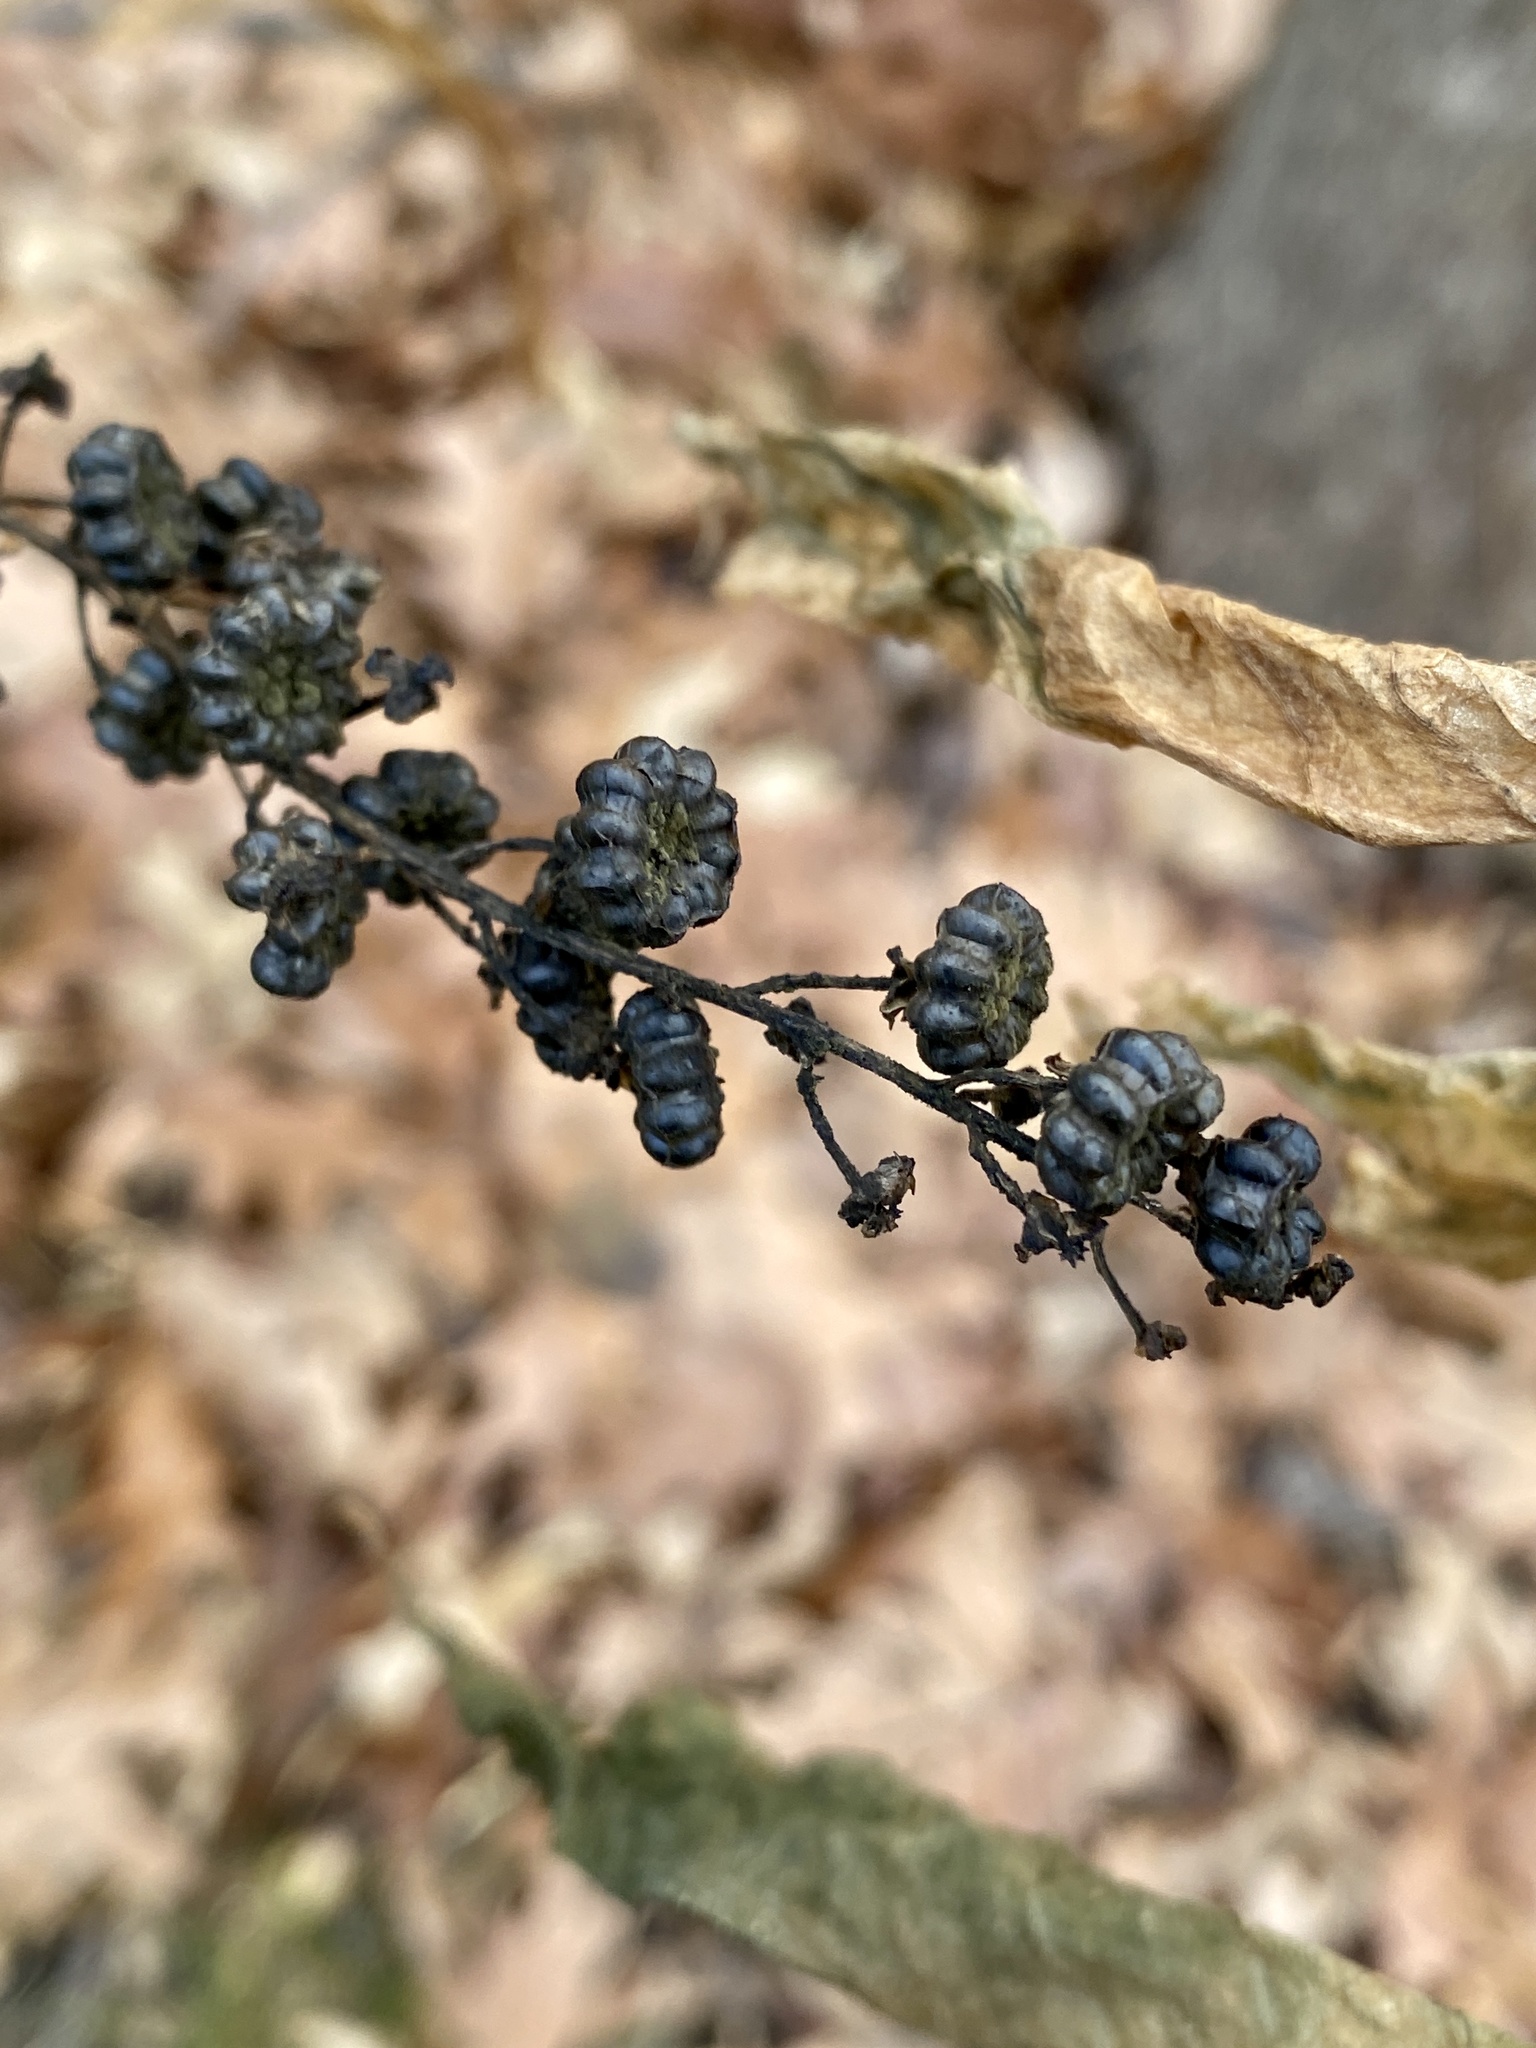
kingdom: Plantae
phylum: Tracheophyta
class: Magnoliopsida
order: Caryophyllales
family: Phytolaccaceae
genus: Phytolacca
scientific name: Phytolacca americana
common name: American pokeweed
